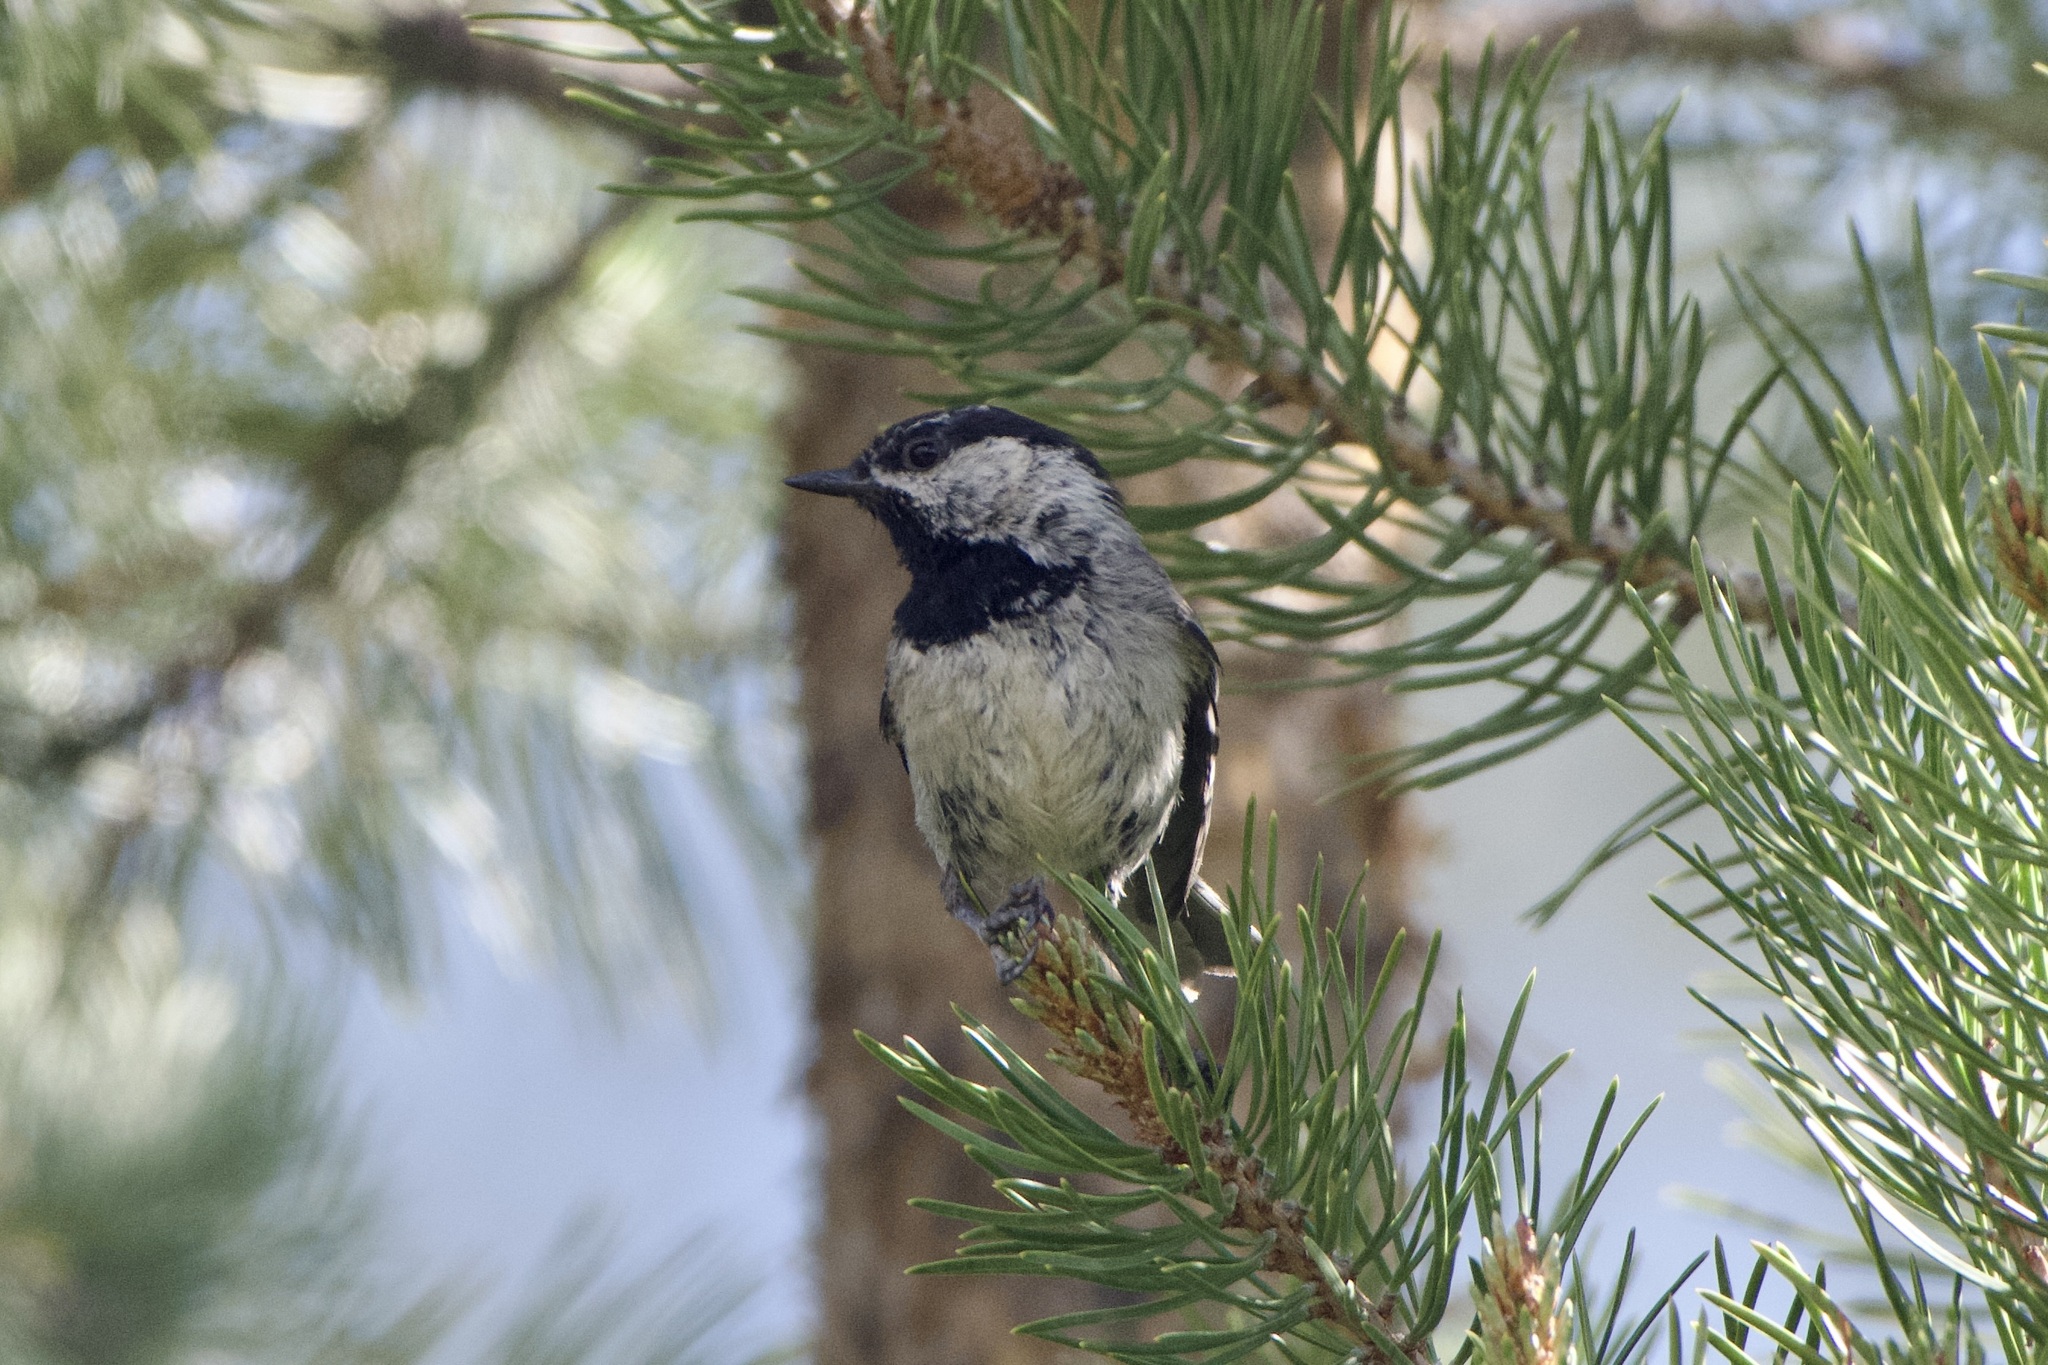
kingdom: Animalia
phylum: Chordata
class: Aves
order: Passeriformes
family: Paridae
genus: Poecile
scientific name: Poecile gambeli
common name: Mountain chickadee
